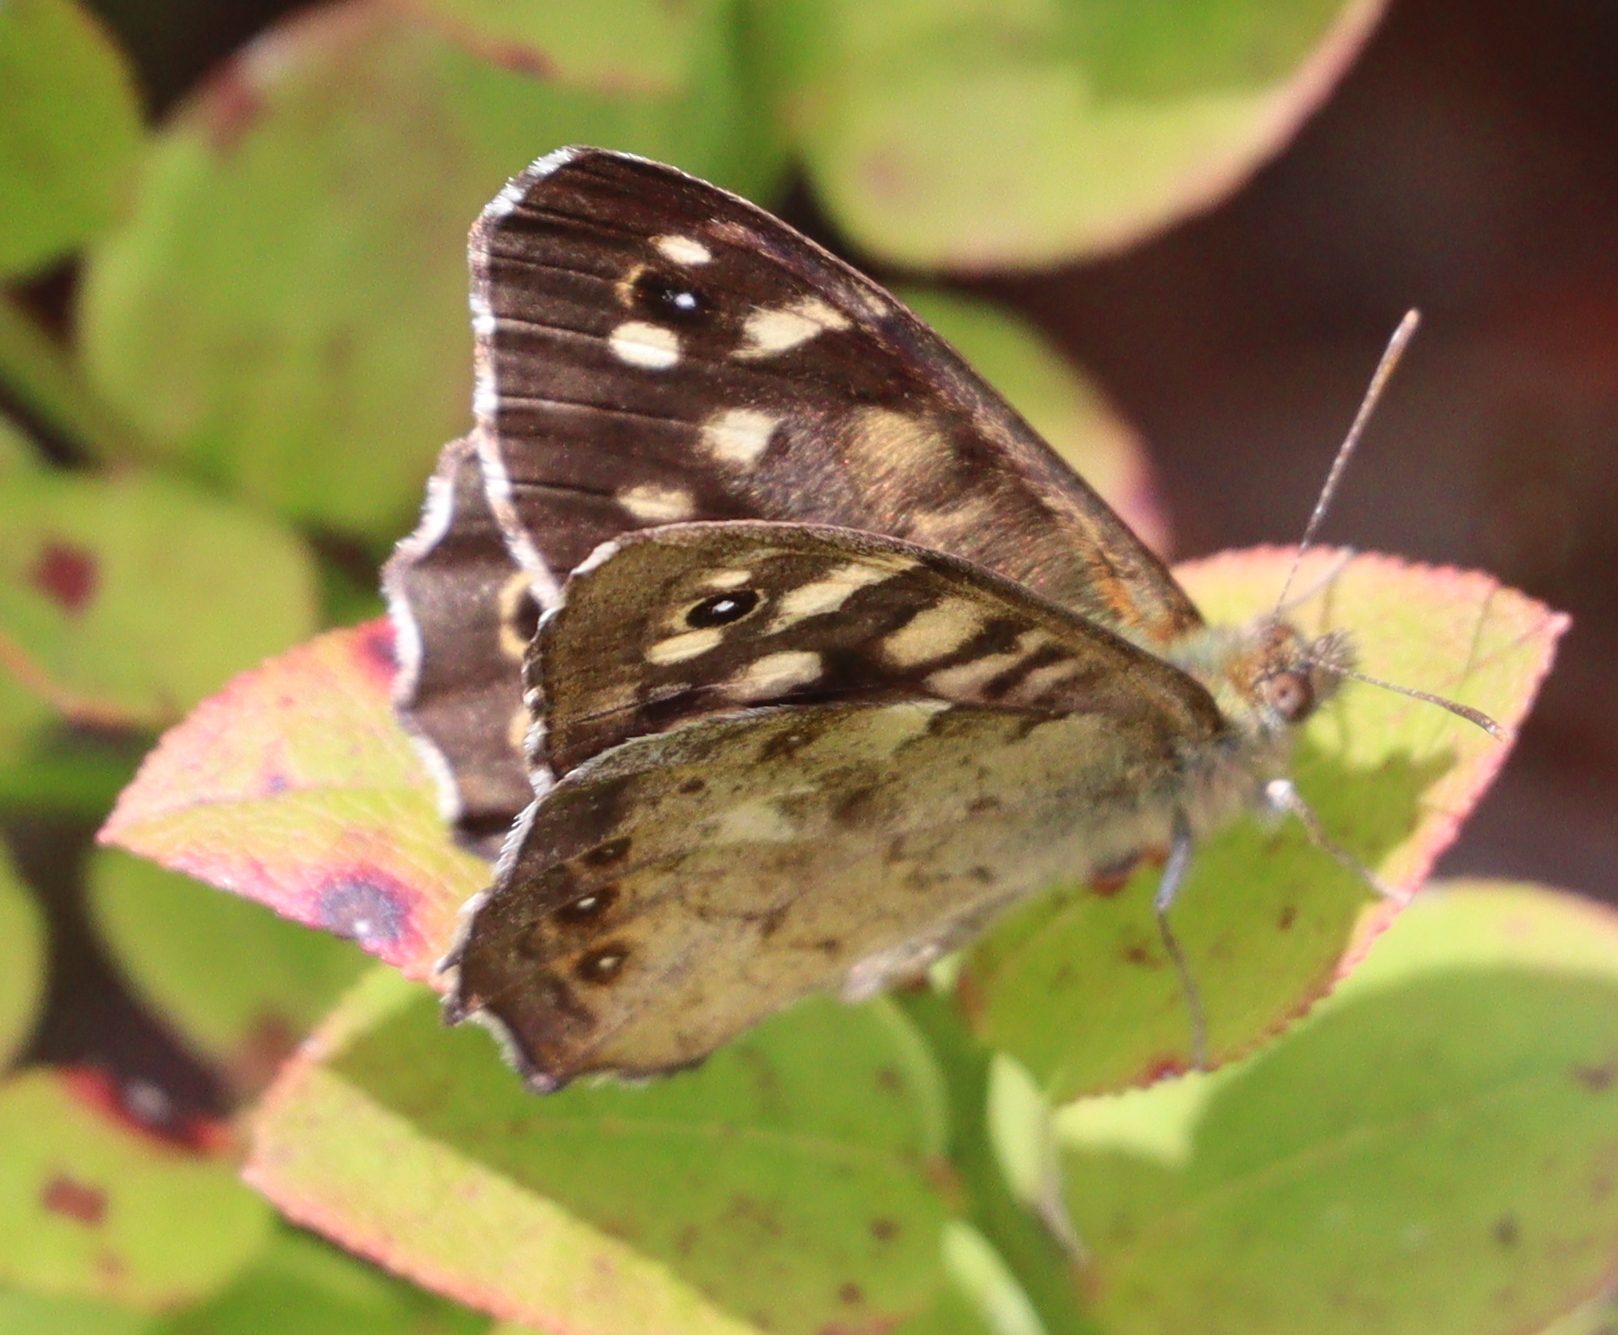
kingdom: Animalia
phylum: Arthropoda
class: Insecta
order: Lepidoptera
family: Nymphalidae
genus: Pararge
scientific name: Pararge aegeria
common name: Speckled wood
